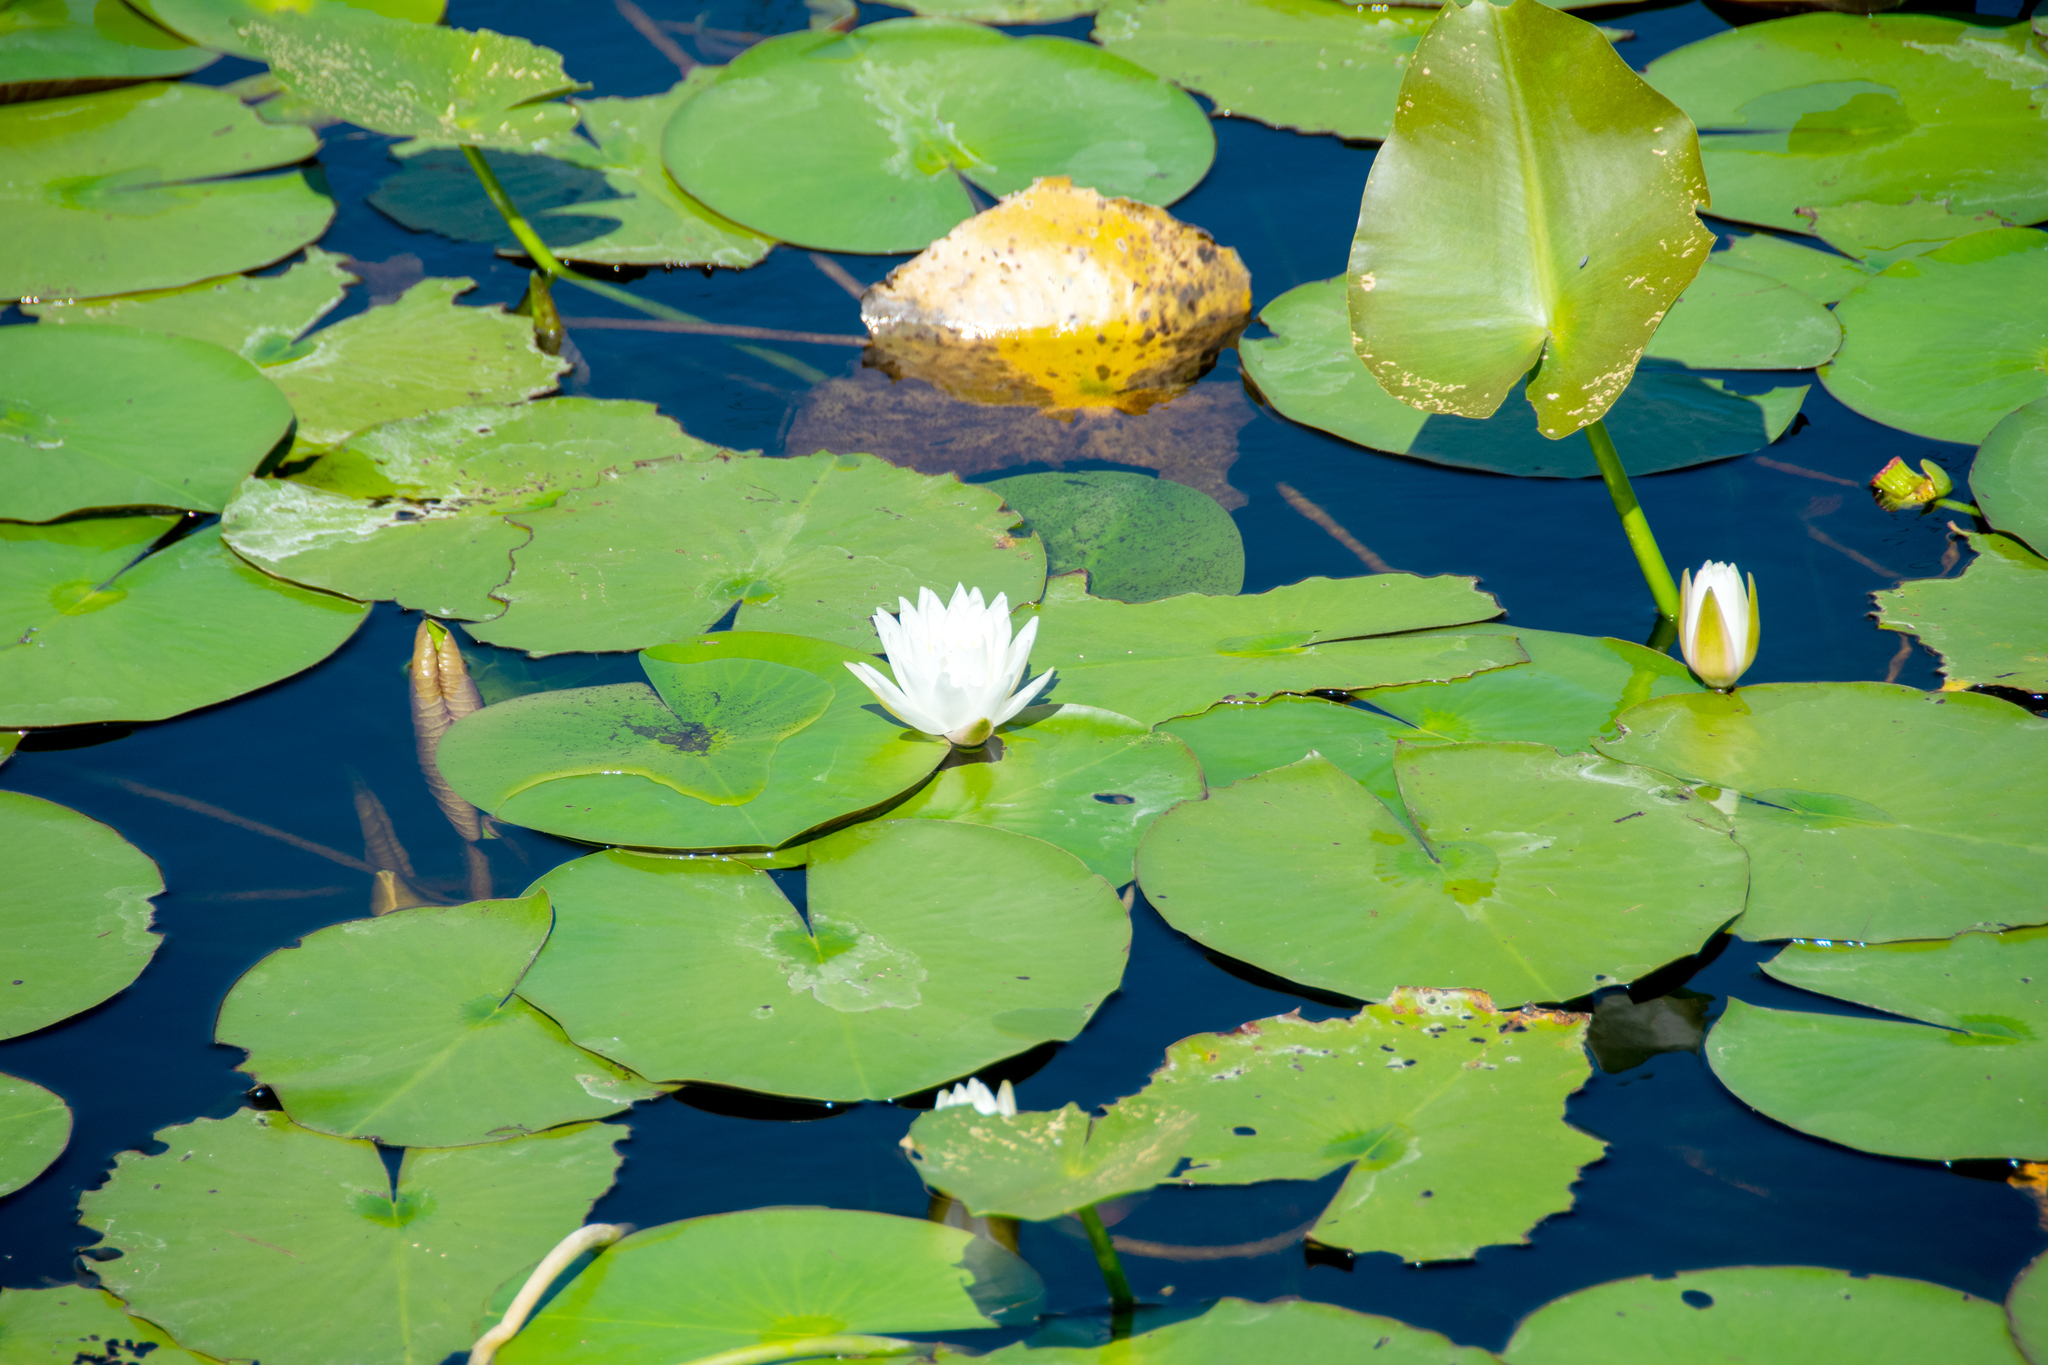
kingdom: Plantae
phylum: Tracheophyta
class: Magnoliopsida
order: Nymphaeales
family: Nymphaeaceae
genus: Nymphaea
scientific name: Nymphaea odorata
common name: Fragrant water-lily
